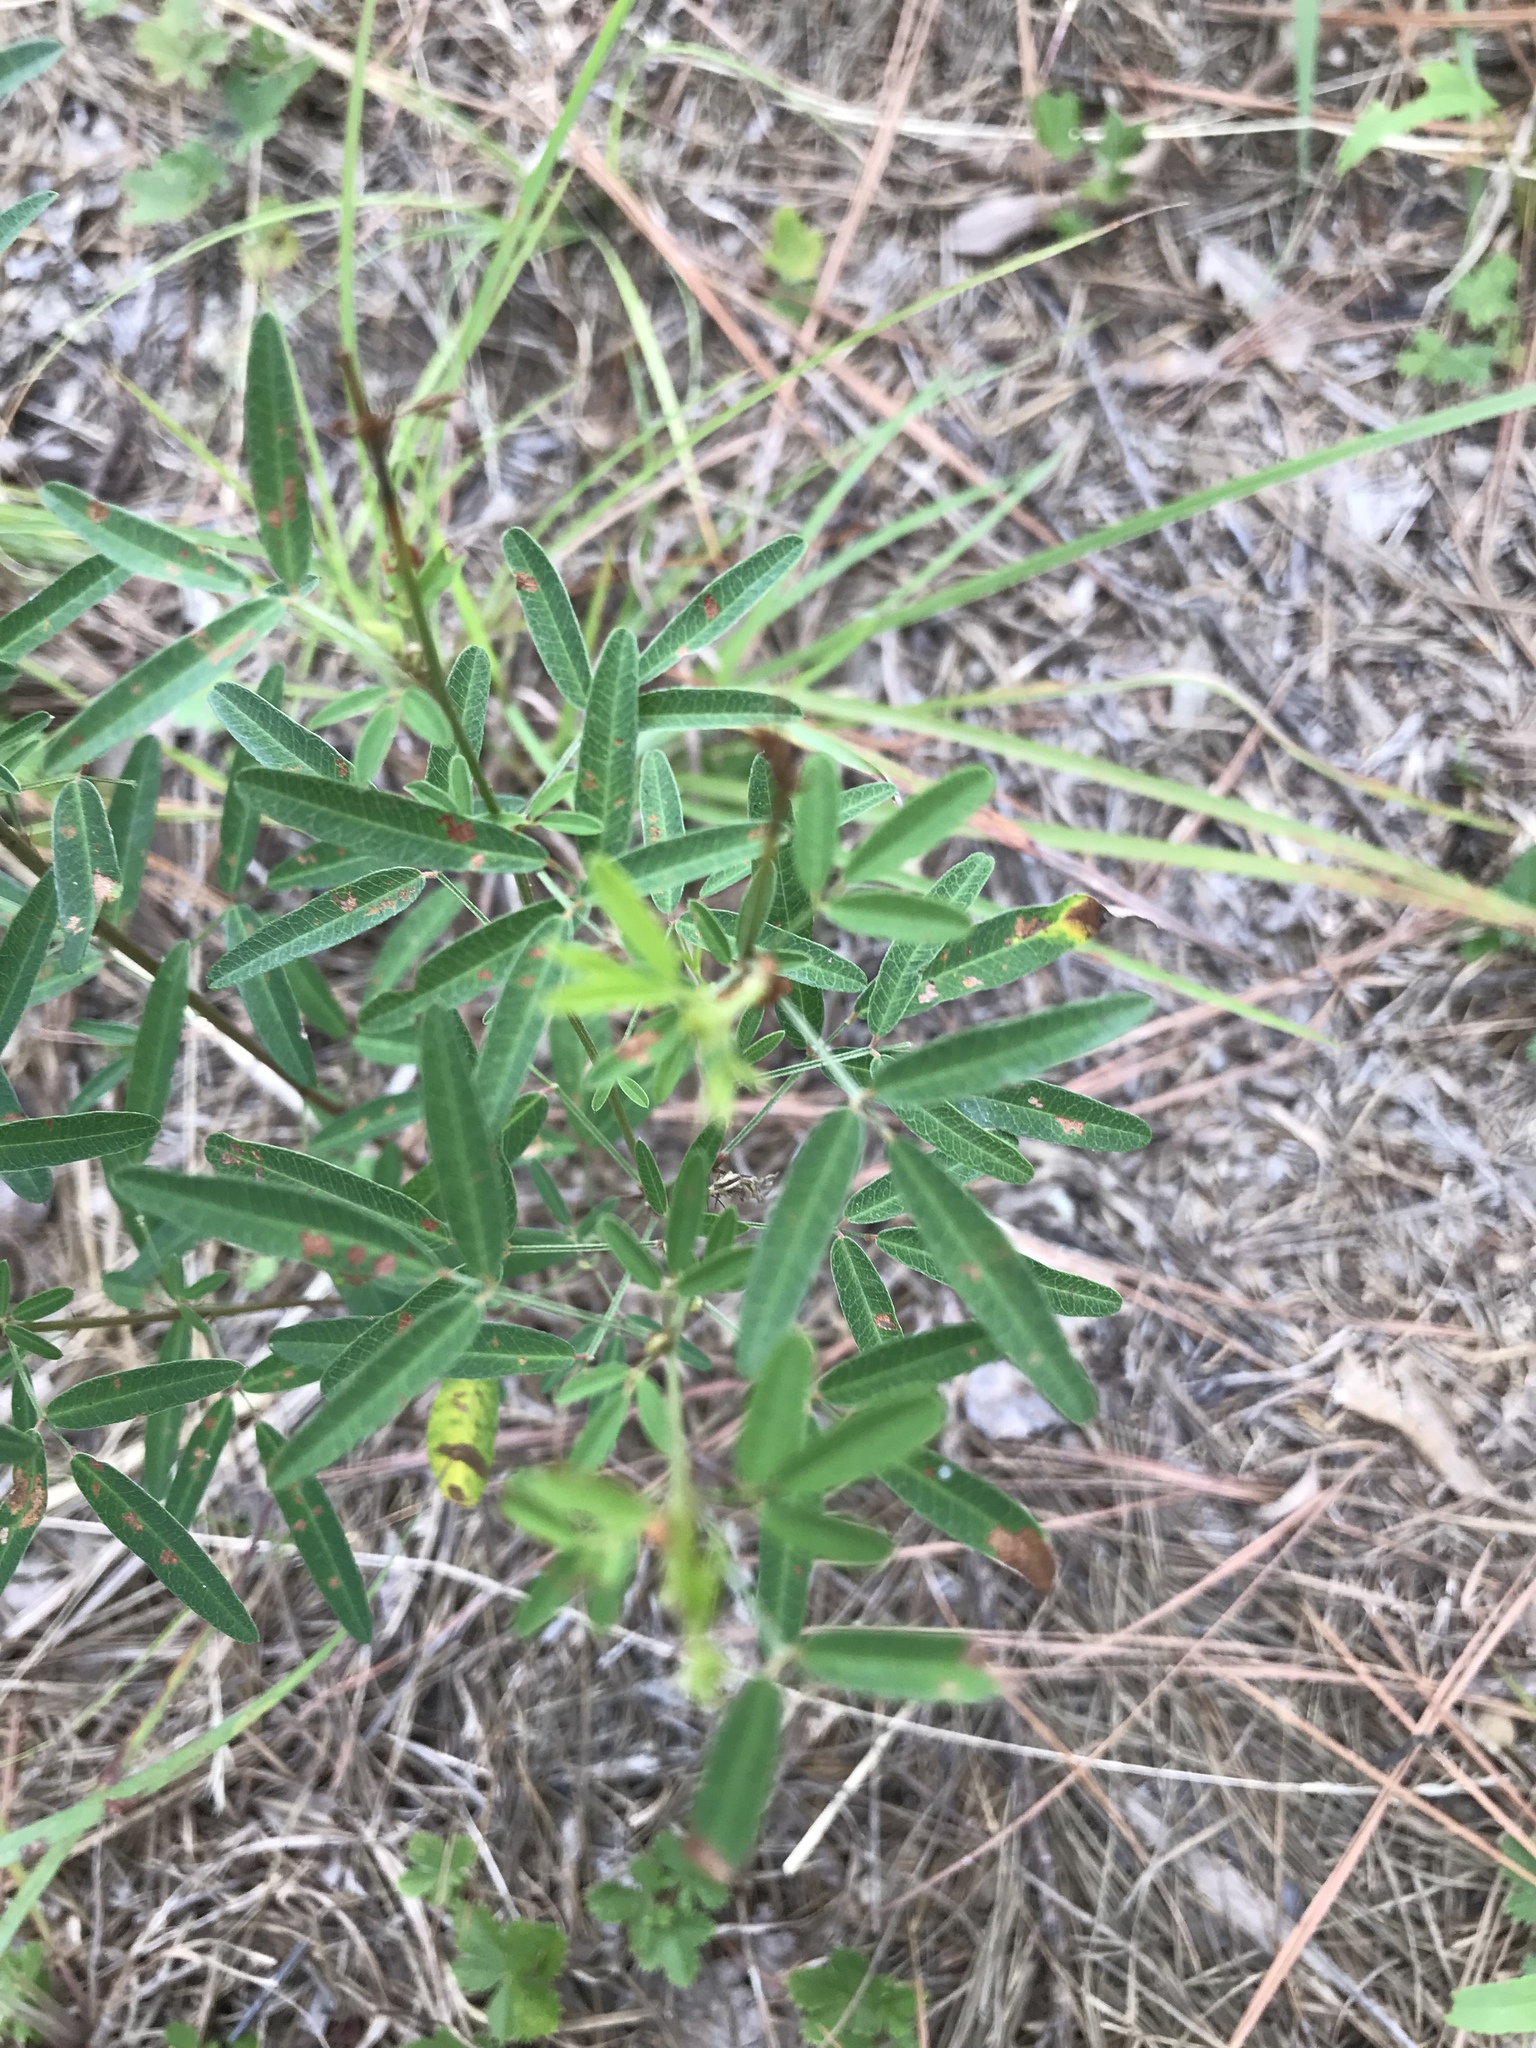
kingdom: Plantae
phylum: Tracheophyta
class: Magnoliopsida
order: Fabales
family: Fabaceae
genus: Lespedeza
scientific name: Lespedeza virginica
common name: Slender bush-clover
